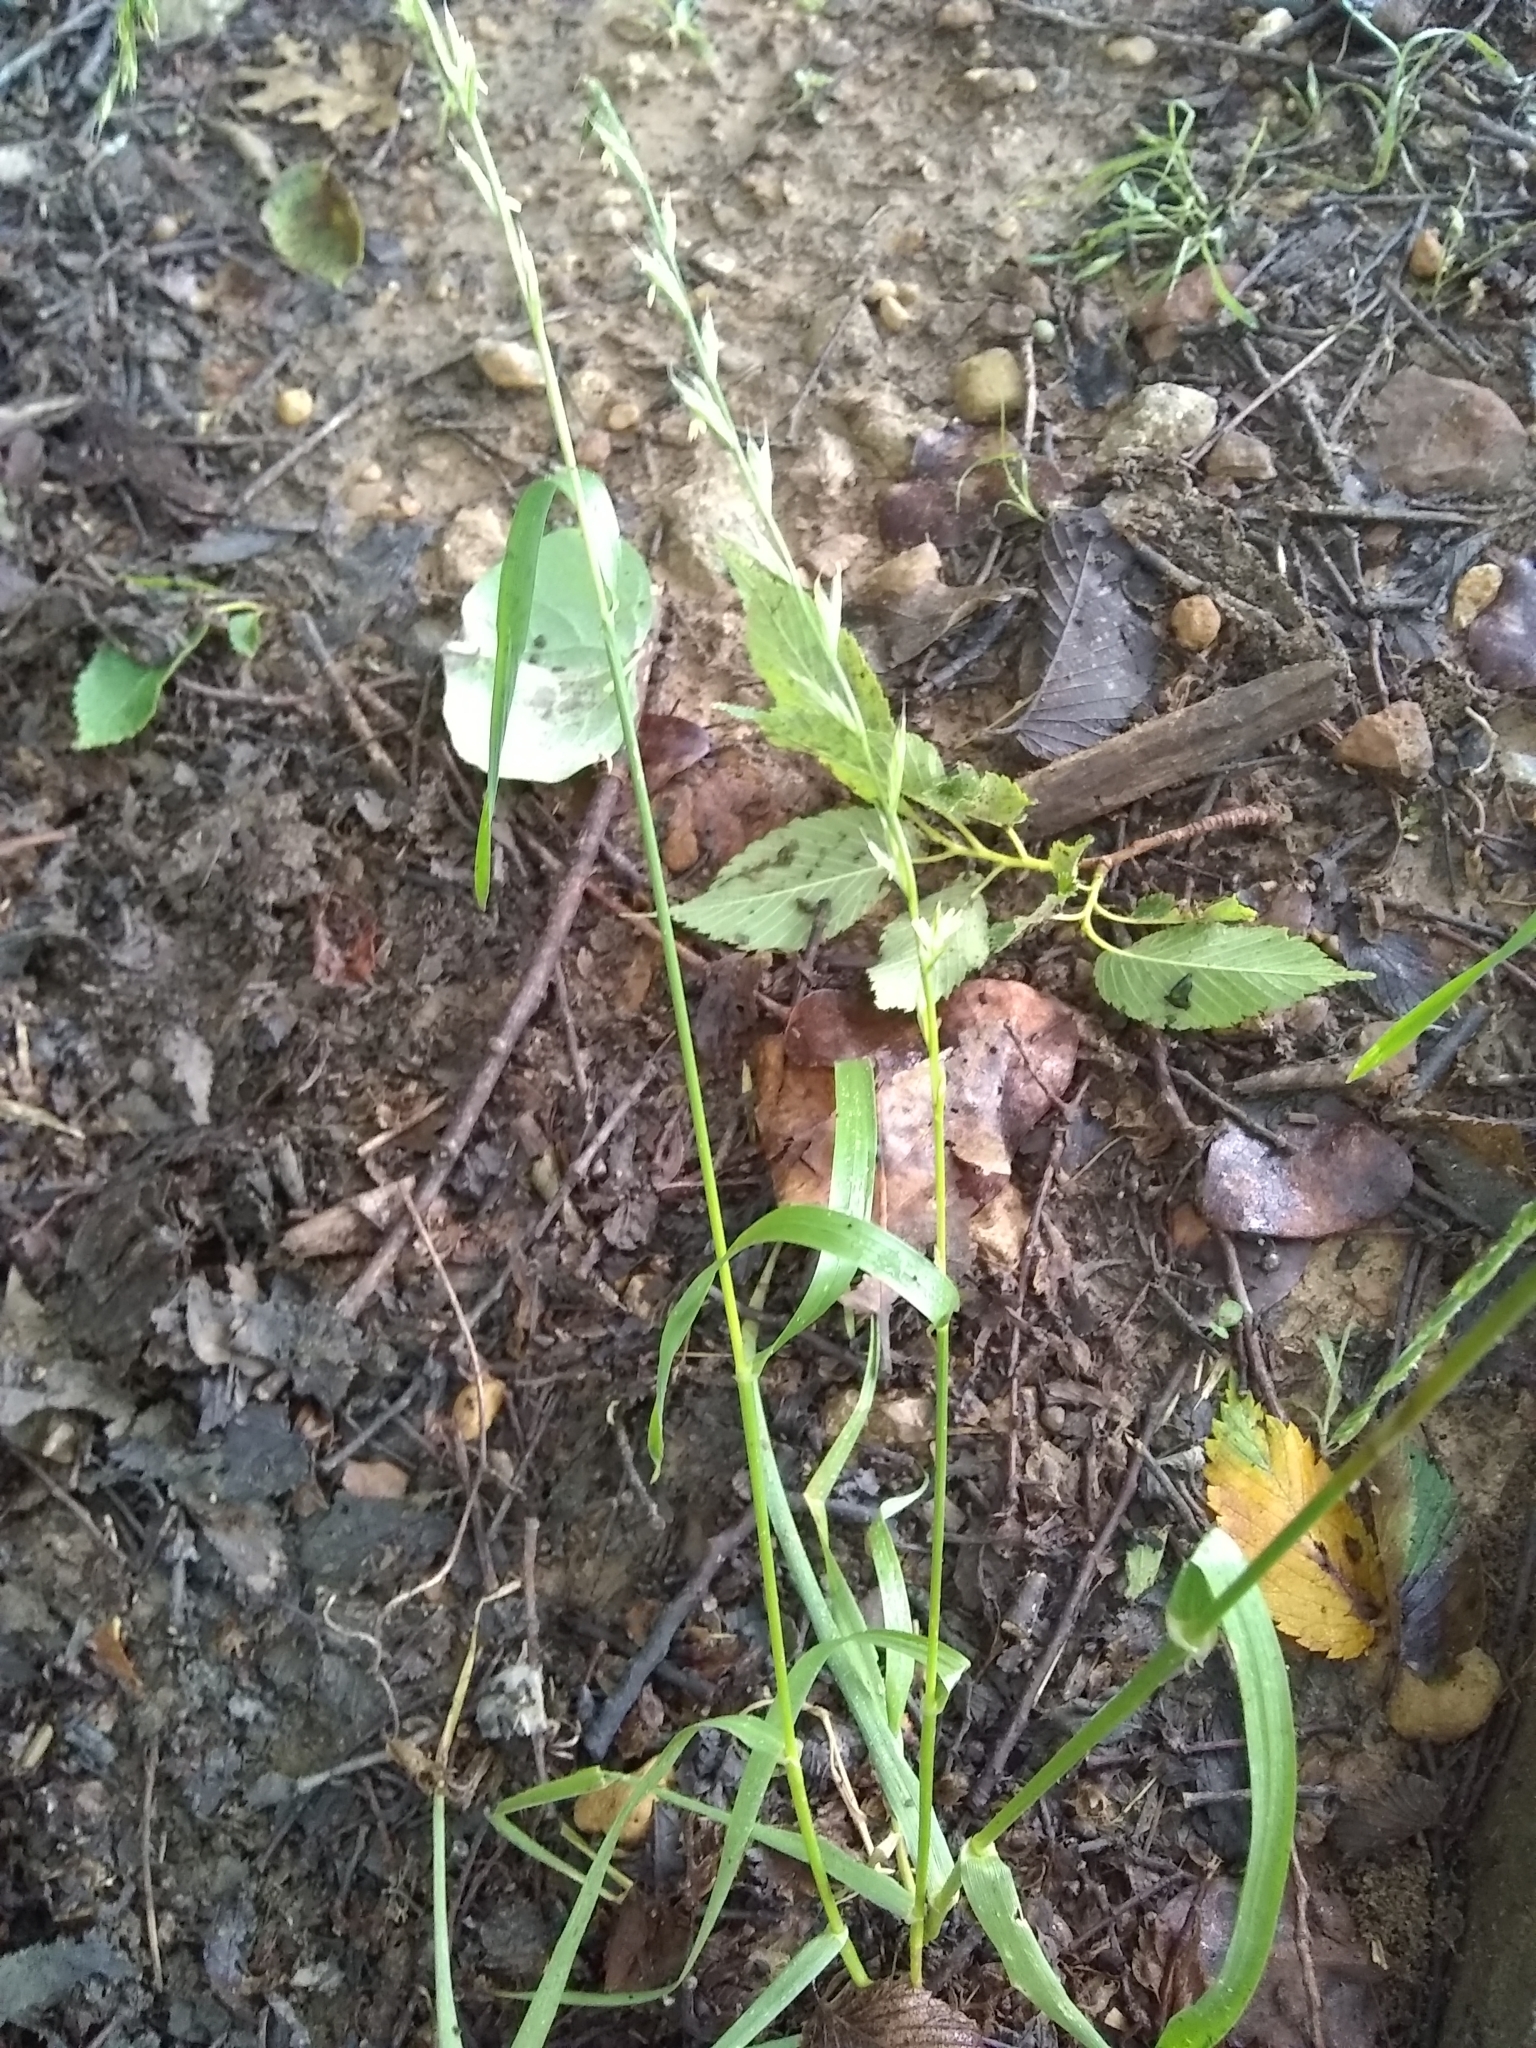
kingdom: Plantae
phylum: Tracheophyta
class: Liliopsida
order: Poales
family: Poaceae
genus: Lolium
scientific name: Lolium perenne
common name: Perennial ryegrass
